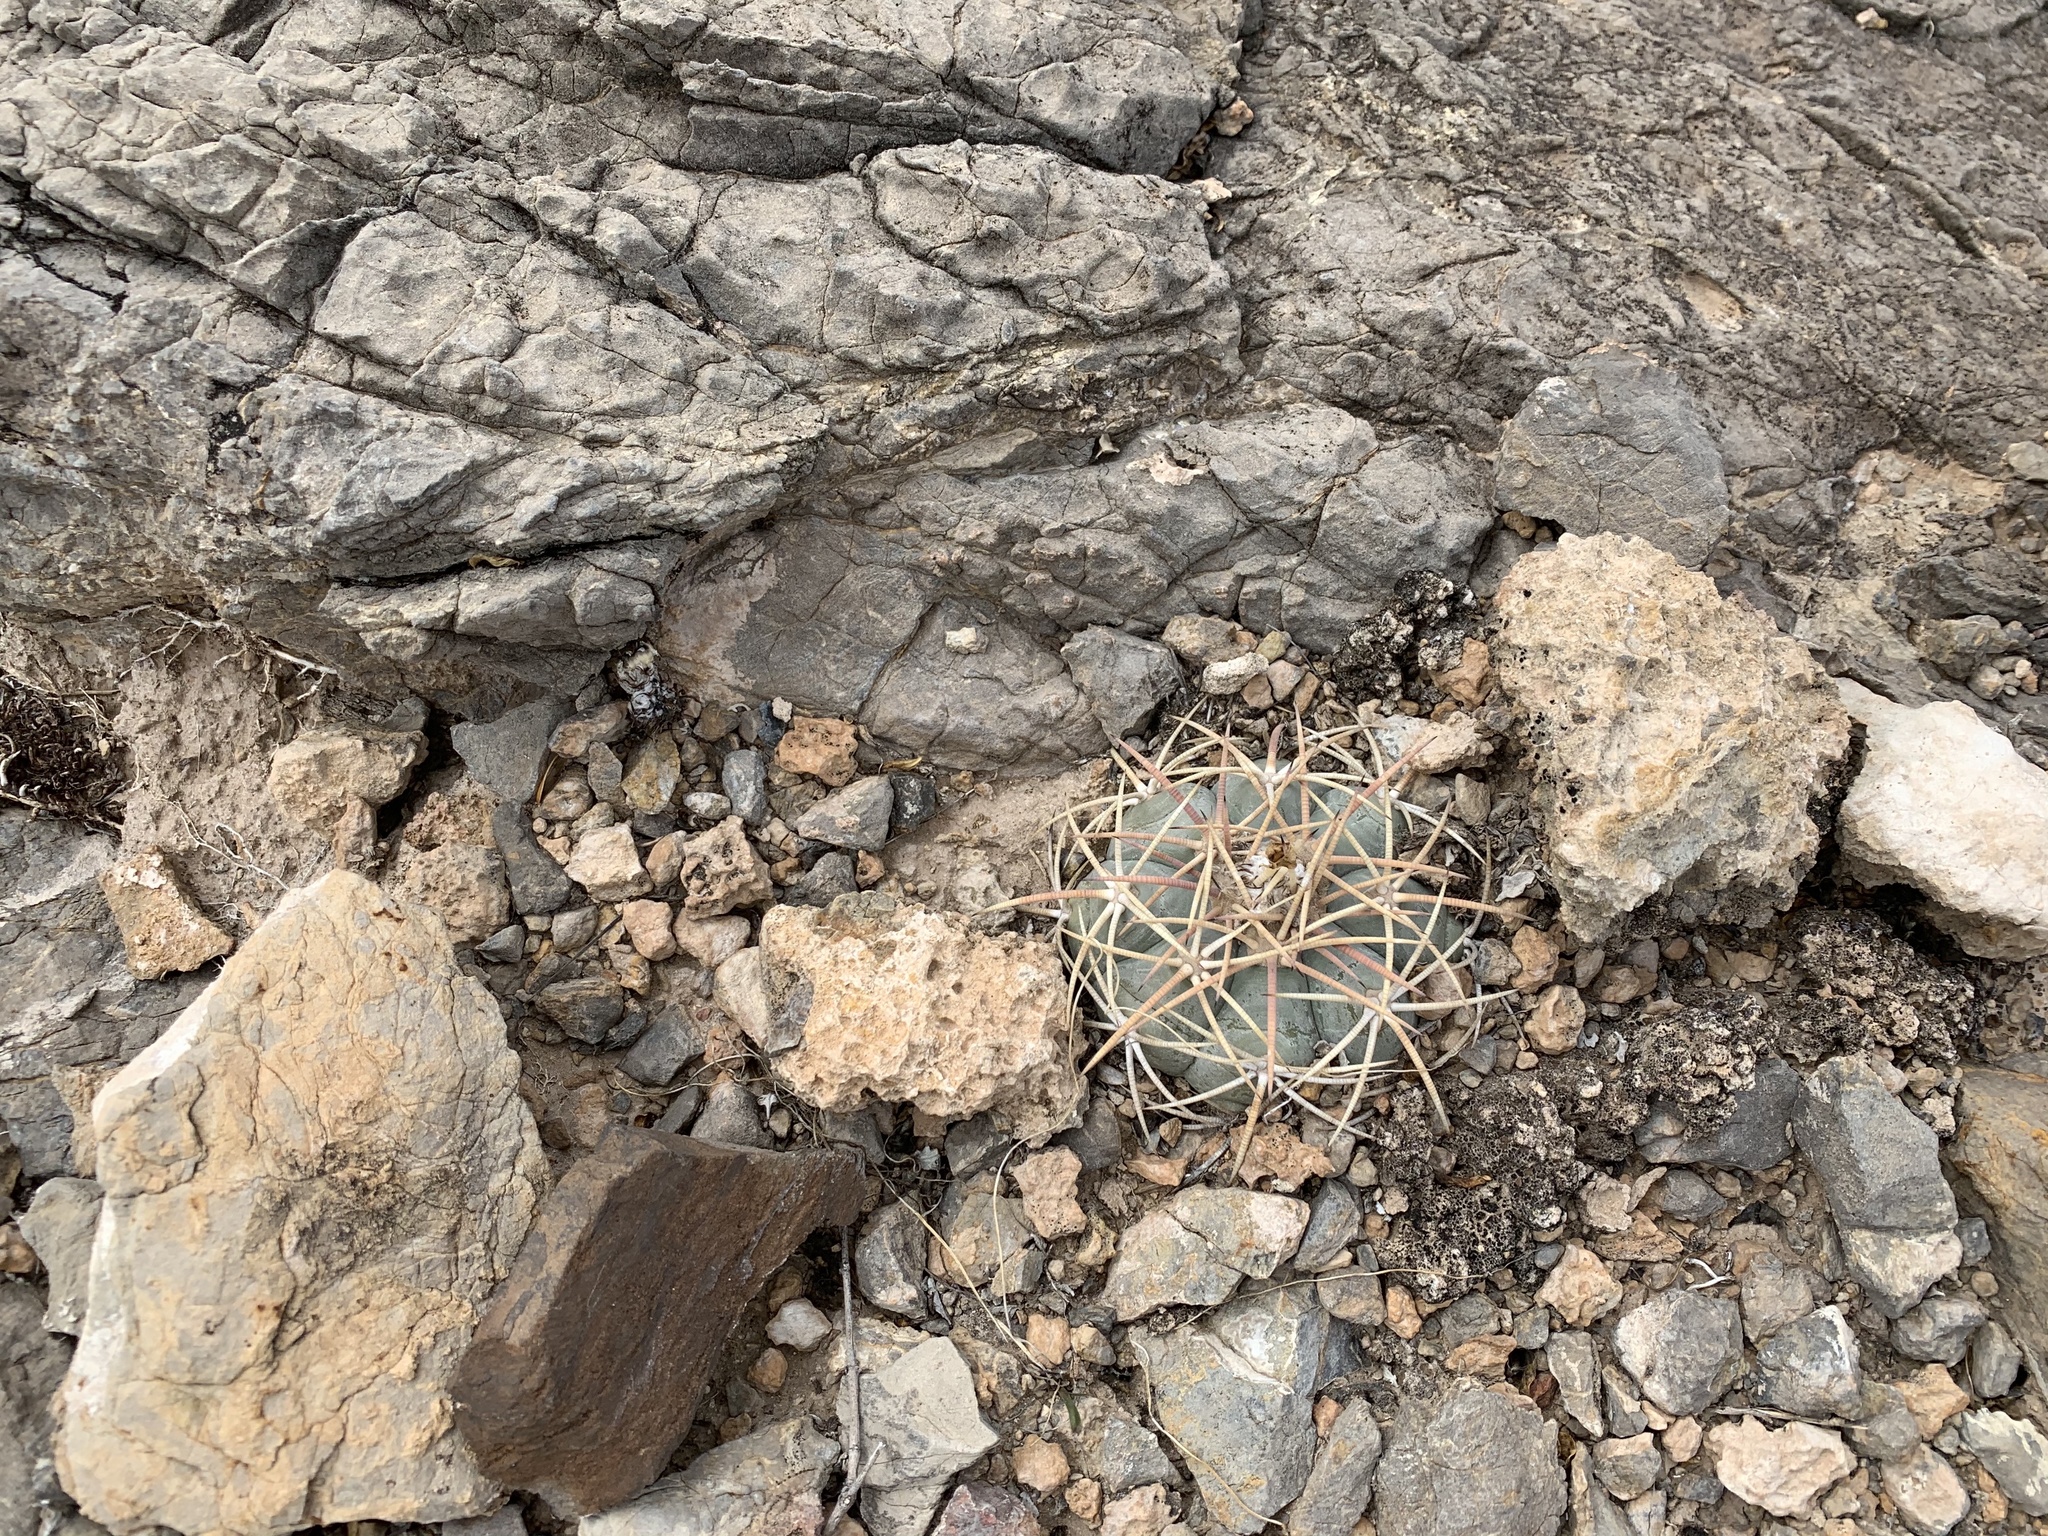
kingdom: Plantae
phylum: Tracheophyta
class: Magnoliopsida
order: Caryophyllales
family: Cactaceae
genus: Echinocactus
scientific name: Echinocactus horizonthalonius
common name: Devilshead
